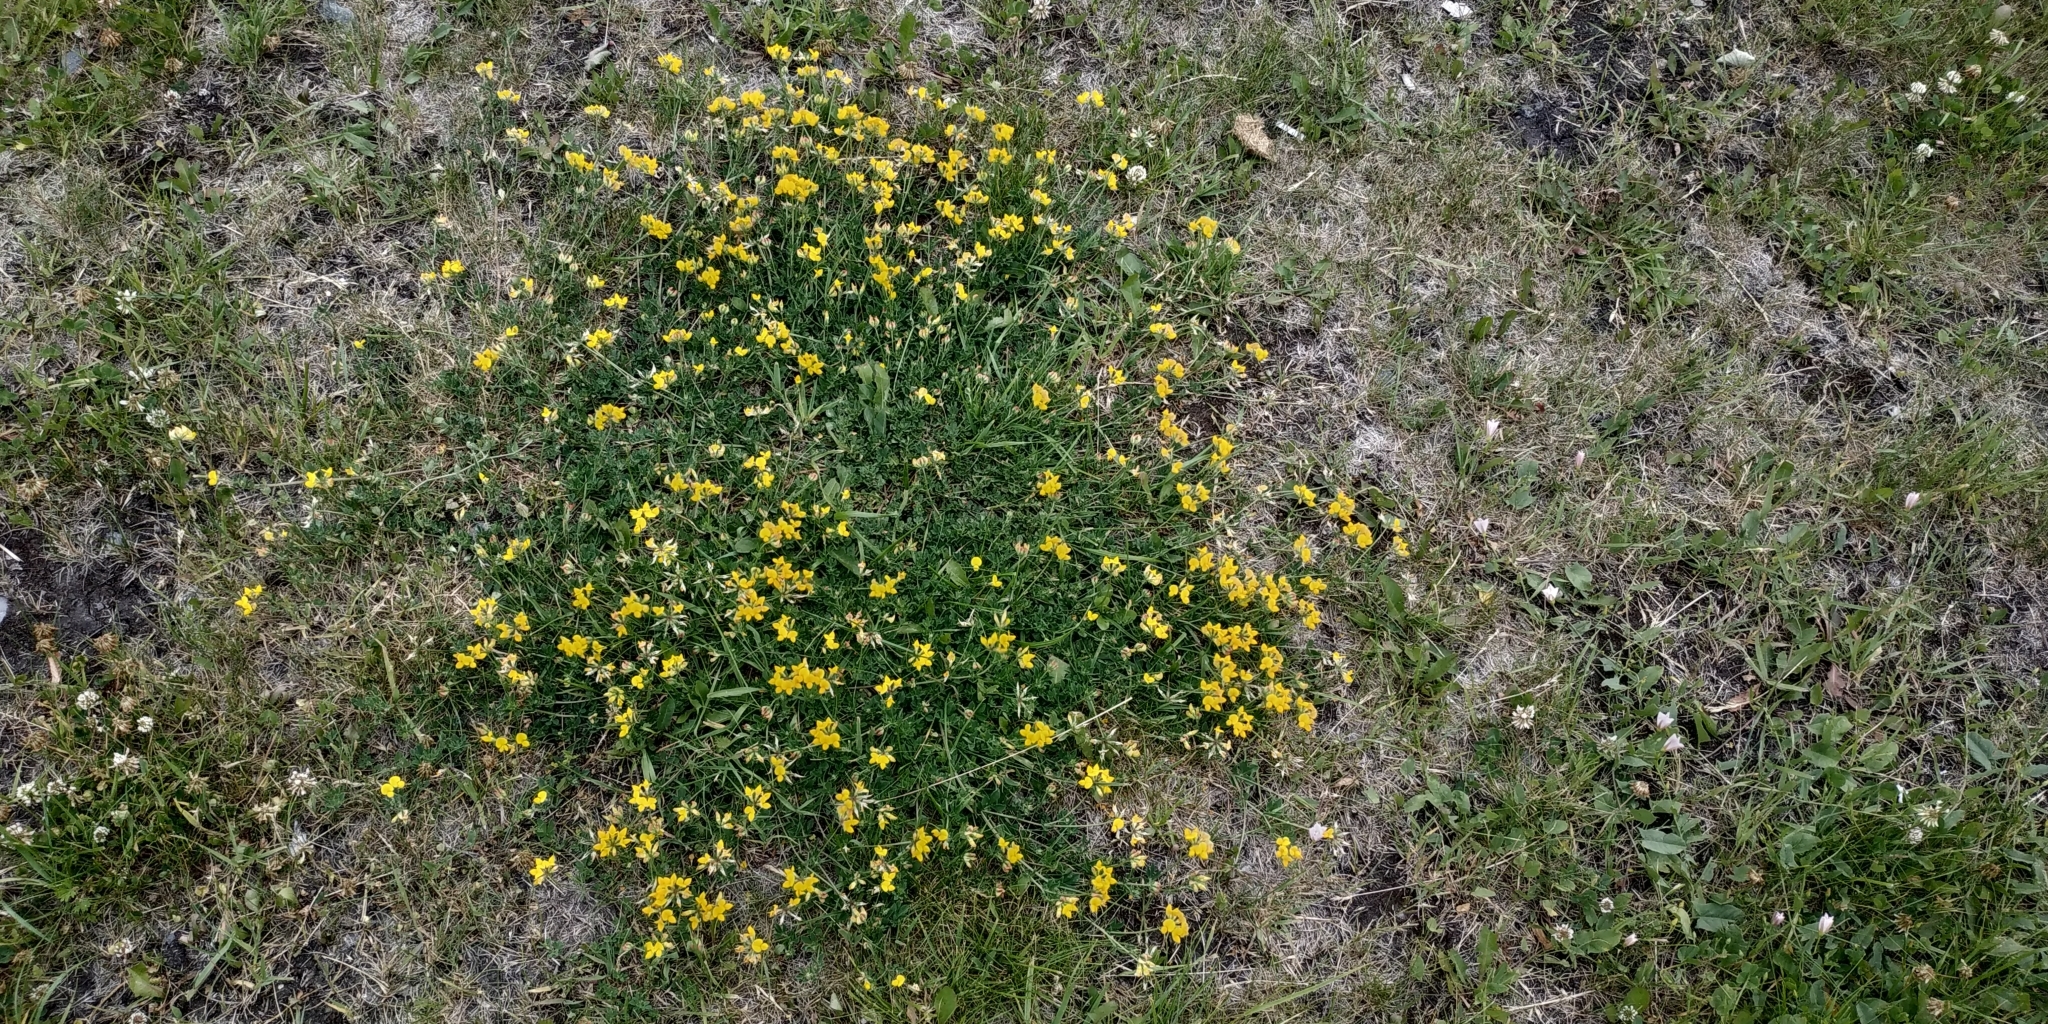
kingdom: Plantae
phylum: Tracheophyta
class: Magnoliopsida
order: Fabales
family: Fabaceae
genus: Lotus
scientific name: Lotus ucrainicus
